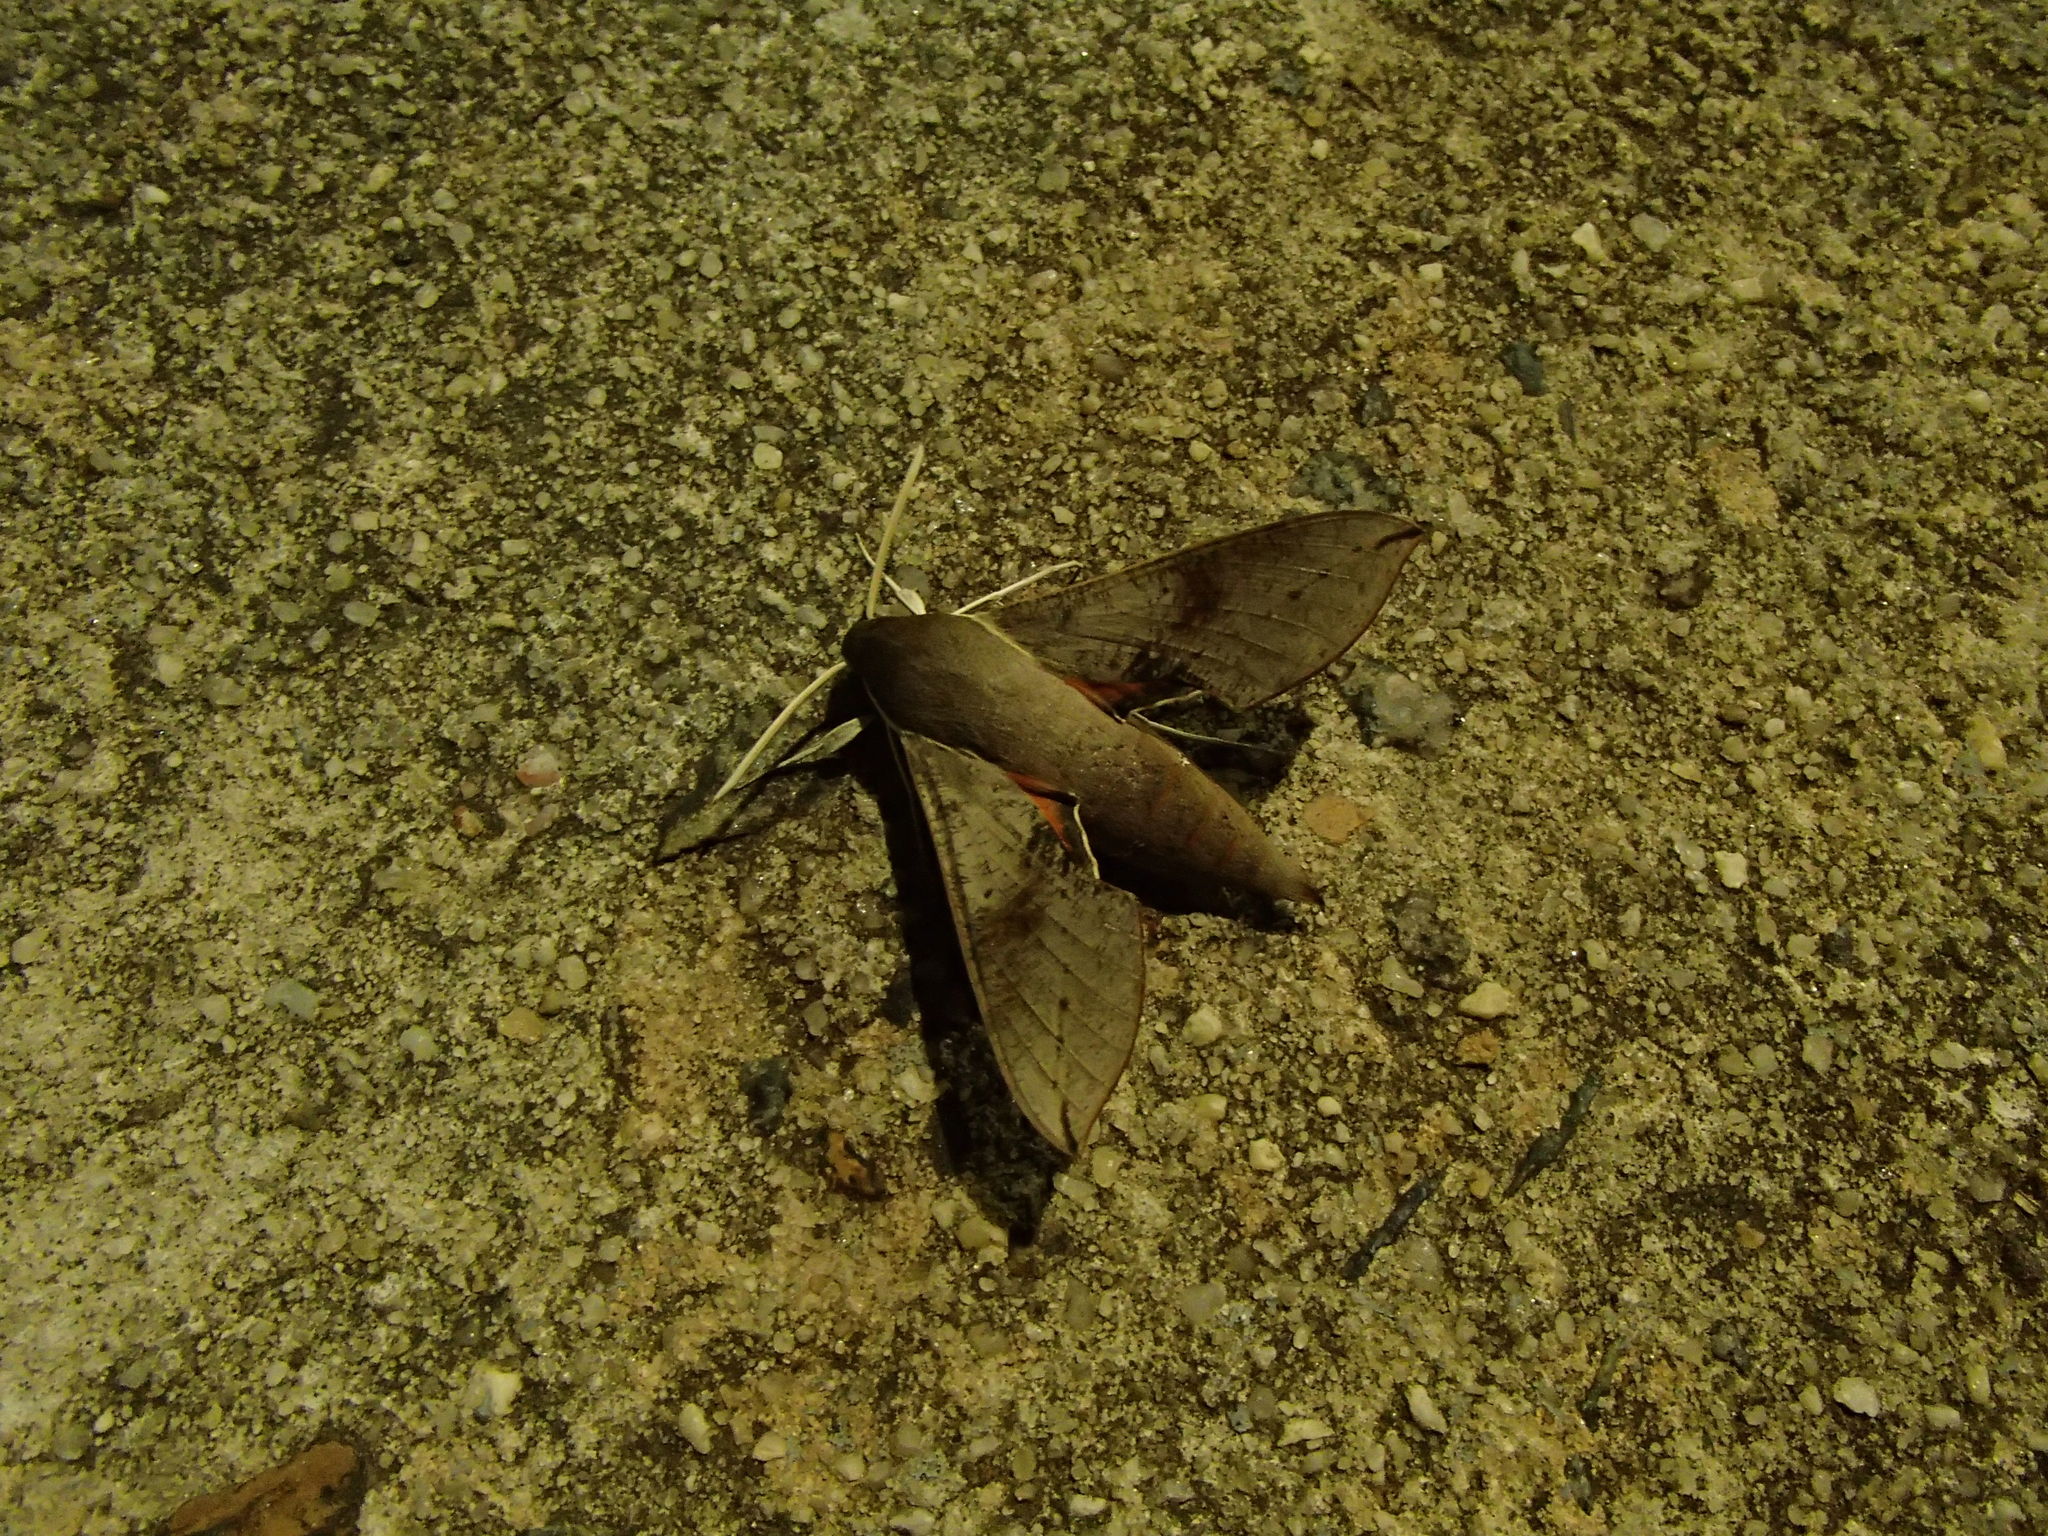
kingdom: Animalia
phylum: Arthropoda
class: Insecta
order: Lepidoptera
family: Sphingidae
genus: Hippotion
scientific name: Hippotion scrofa
